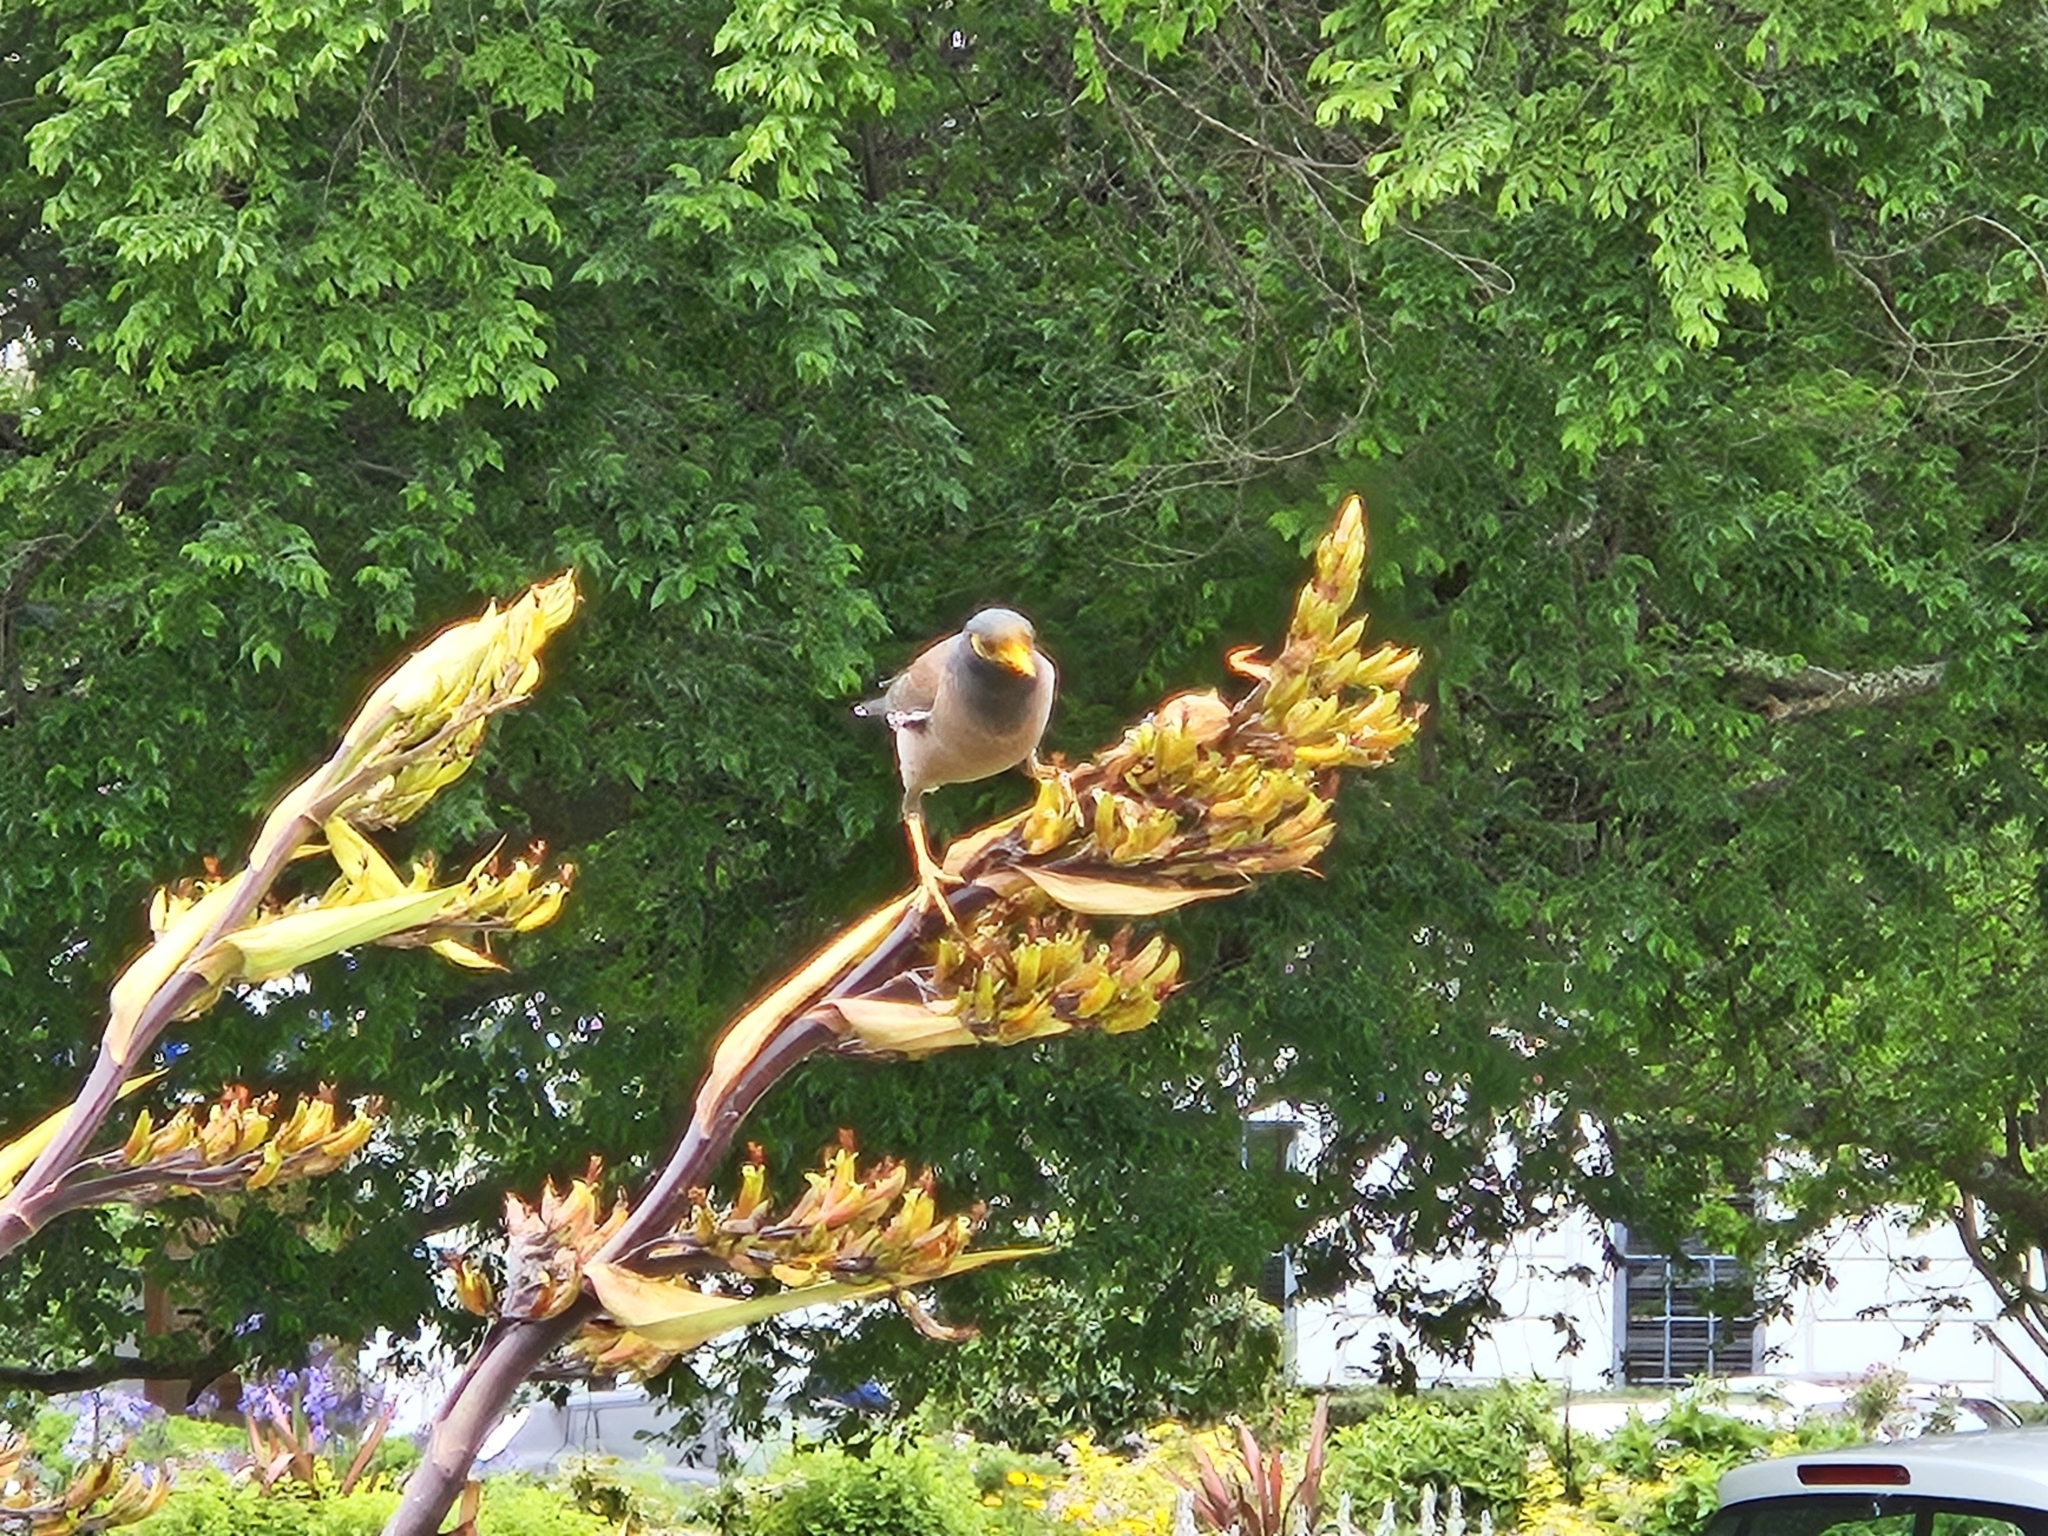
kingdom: Animalia
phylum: Chordata
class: Aves
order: Passeriformes
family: Sturnidae
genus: Acridotheres
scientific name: Acridotheres tristis
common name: Common myna
